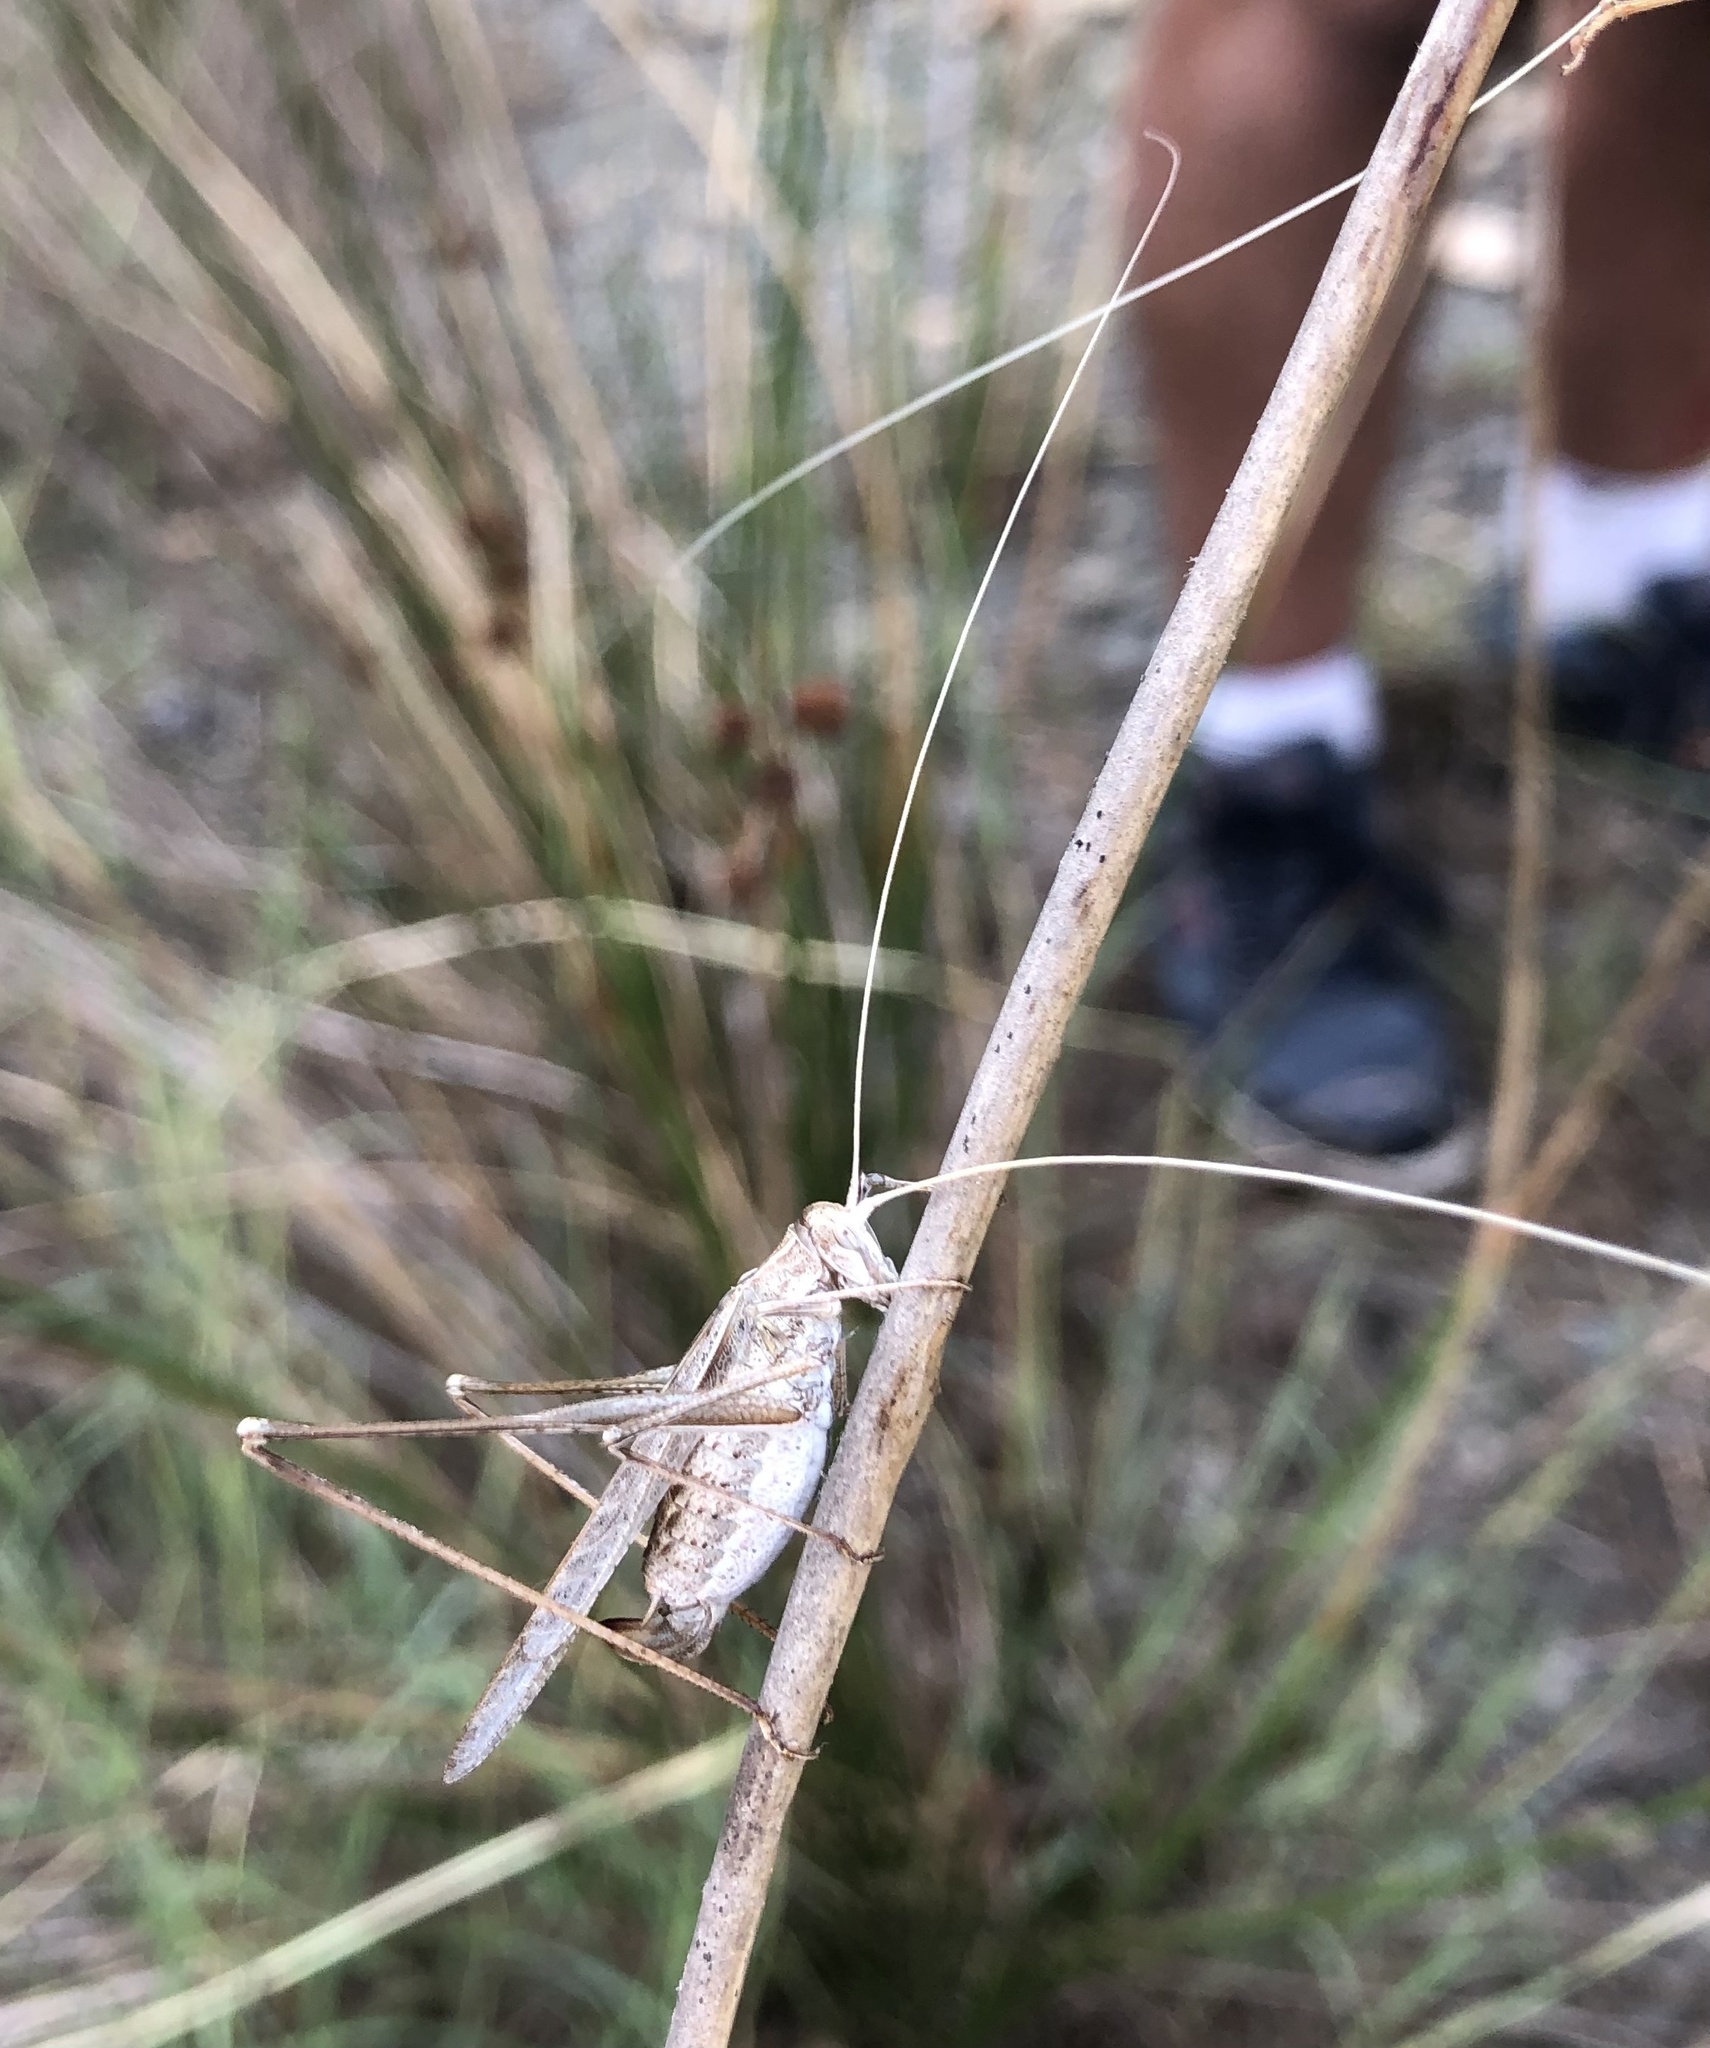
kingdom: Animalia
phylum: Arthropoda
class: Insecta
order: Orthoptera
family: Tettigoniidae
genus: Tylopsis
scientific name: Tylopsis lilifolia
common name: Lily bush-cricket
